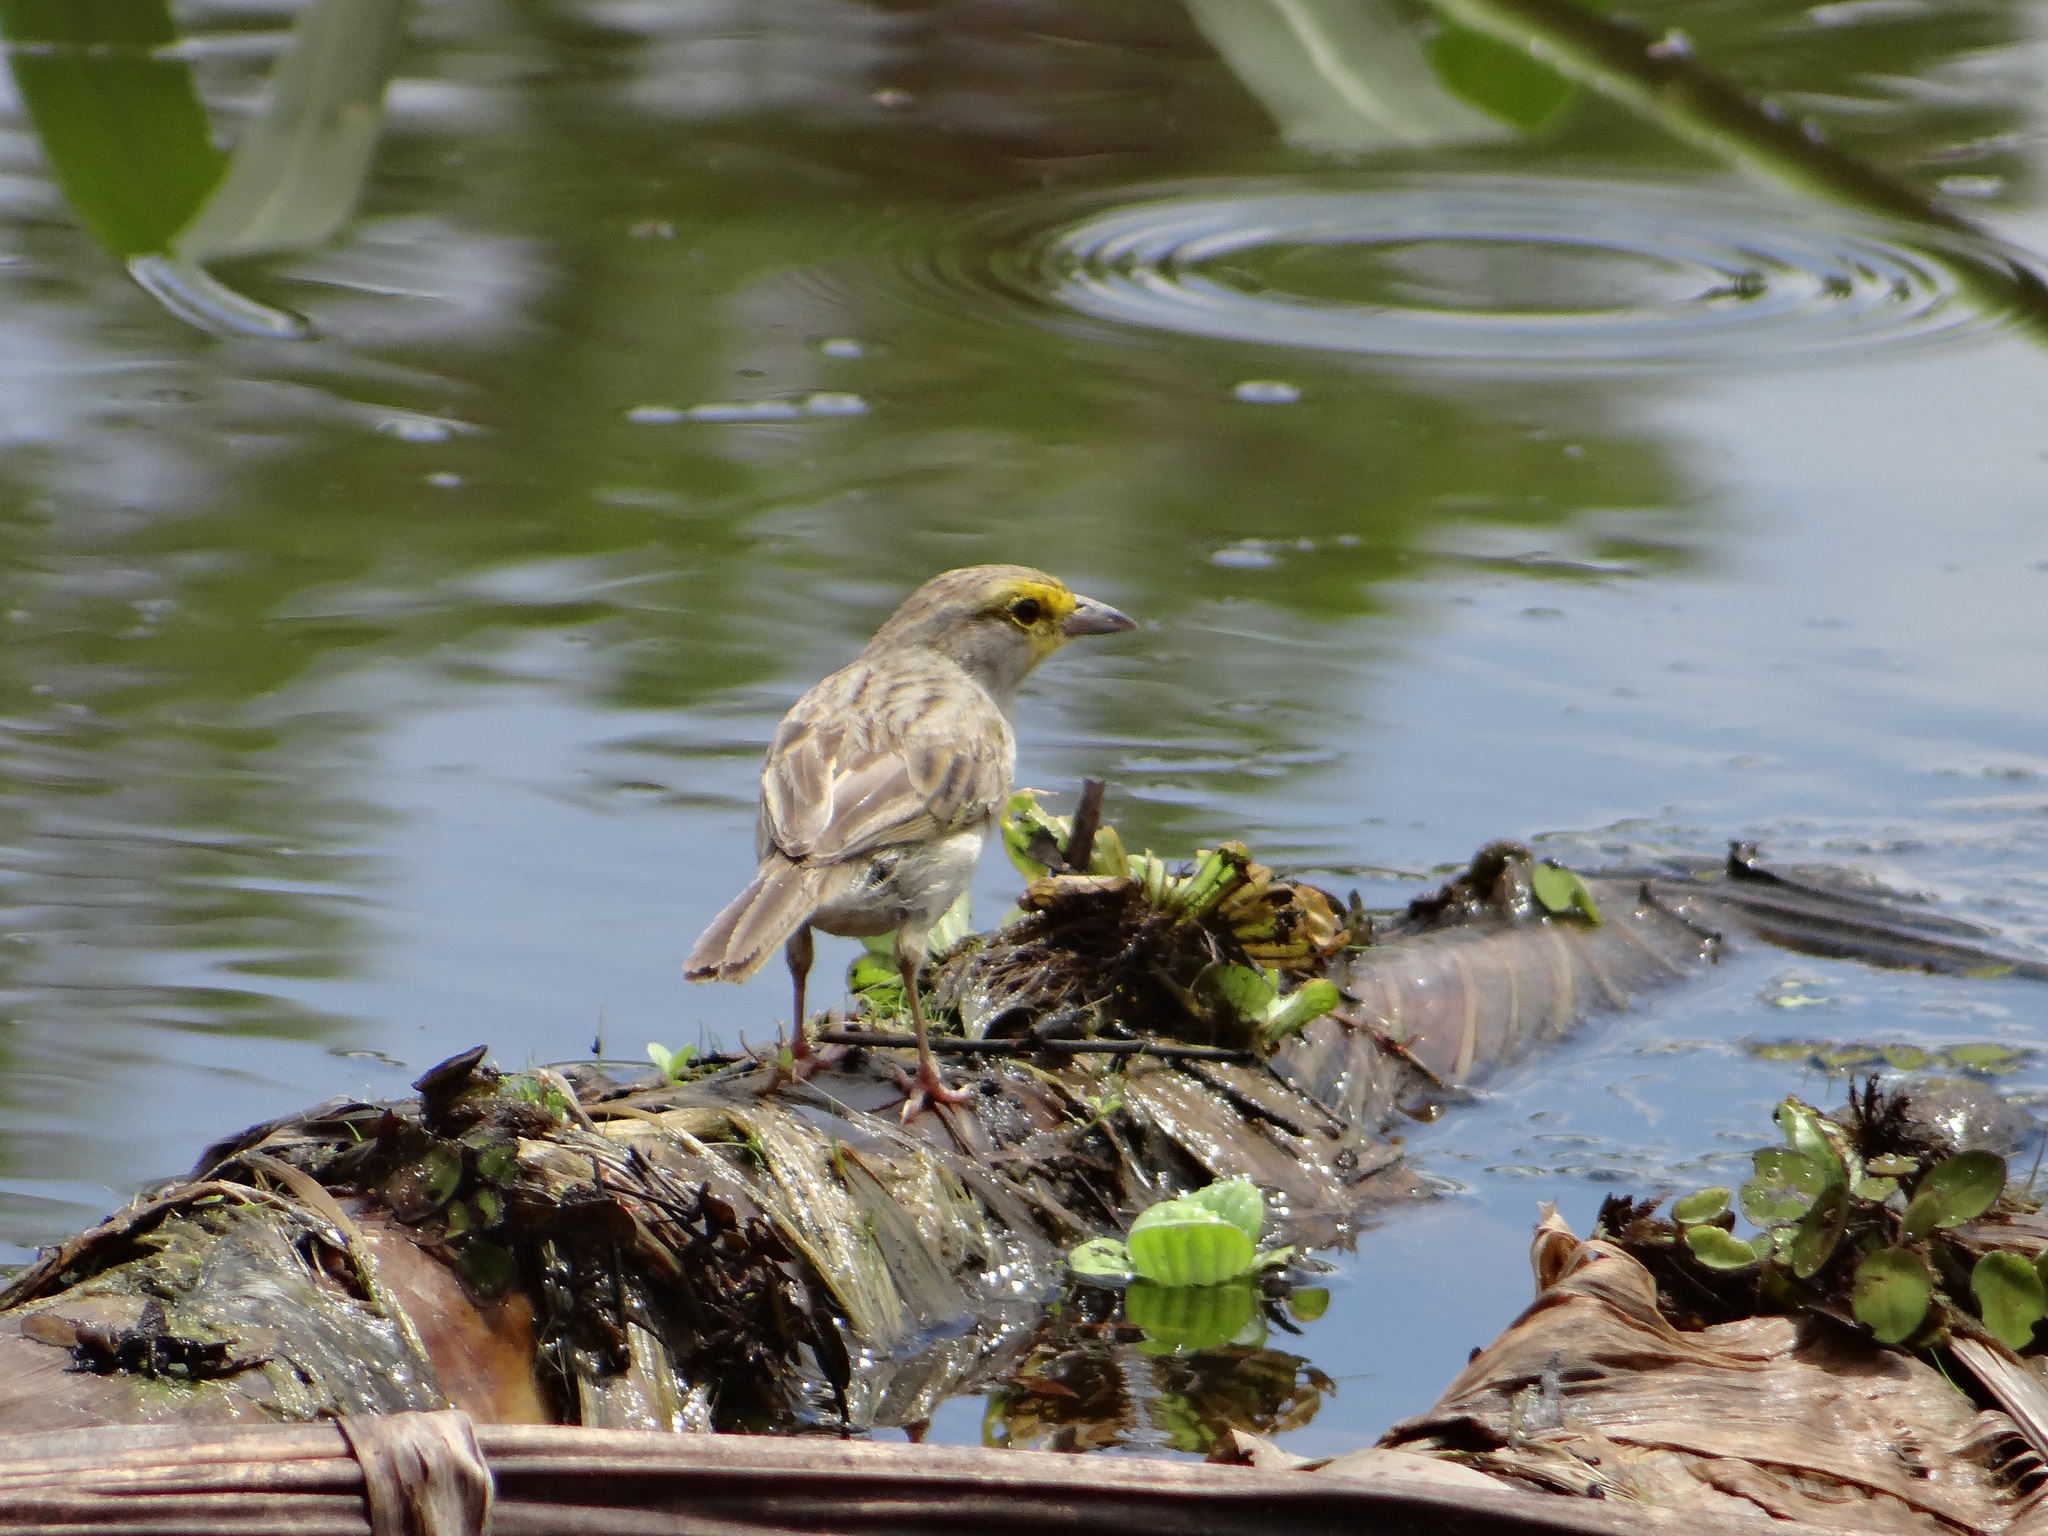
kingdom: Animalia
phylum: Chordata
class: Aves
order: Passeriformes
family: Passerellidae
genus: Ammodramus
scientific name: Ammodramus aurifrons
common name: Yellow-browed sparrow
